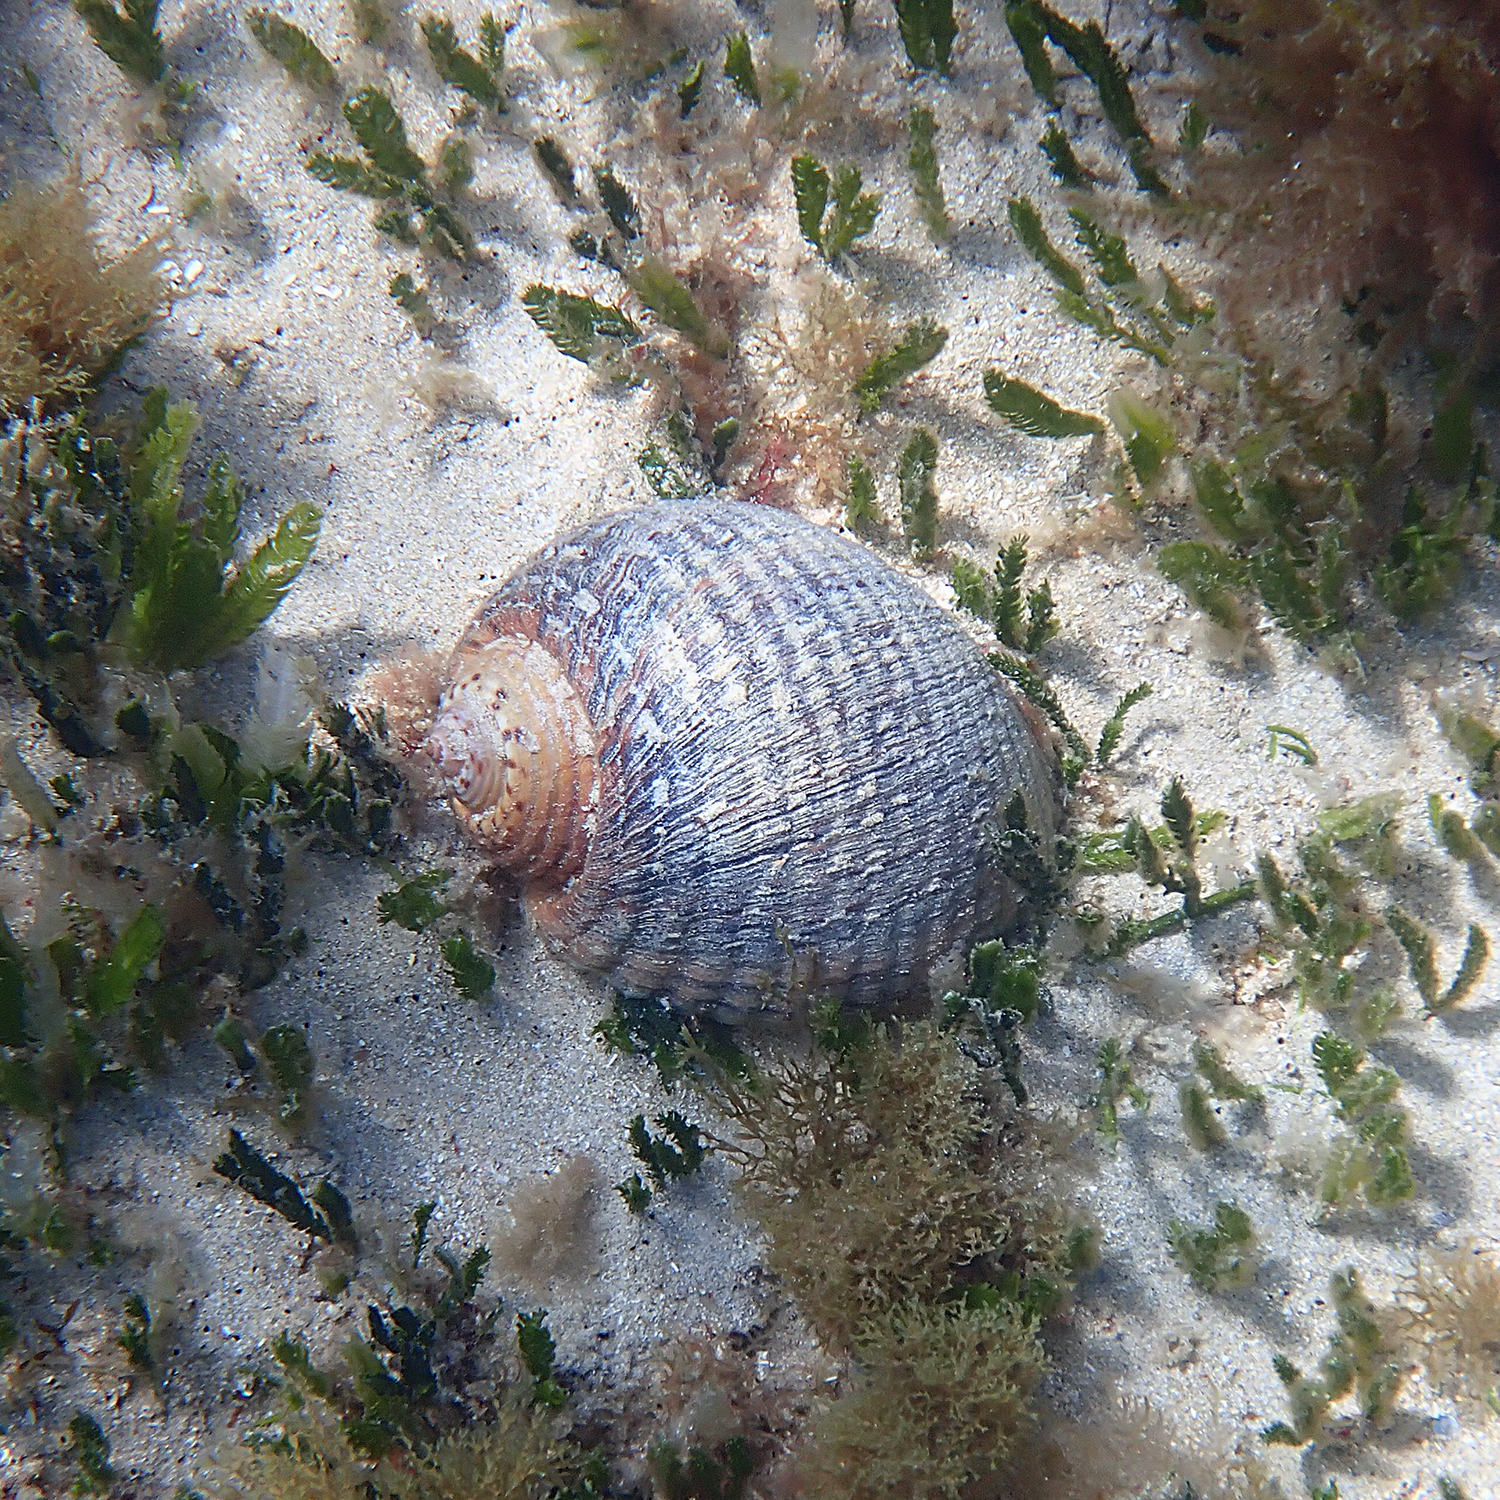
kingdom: Animalia
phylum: Mollusca
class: Gastropoda
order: Littorinimorpha
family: Tonnidae
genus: Tonna
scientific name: Tonna tankervillii
